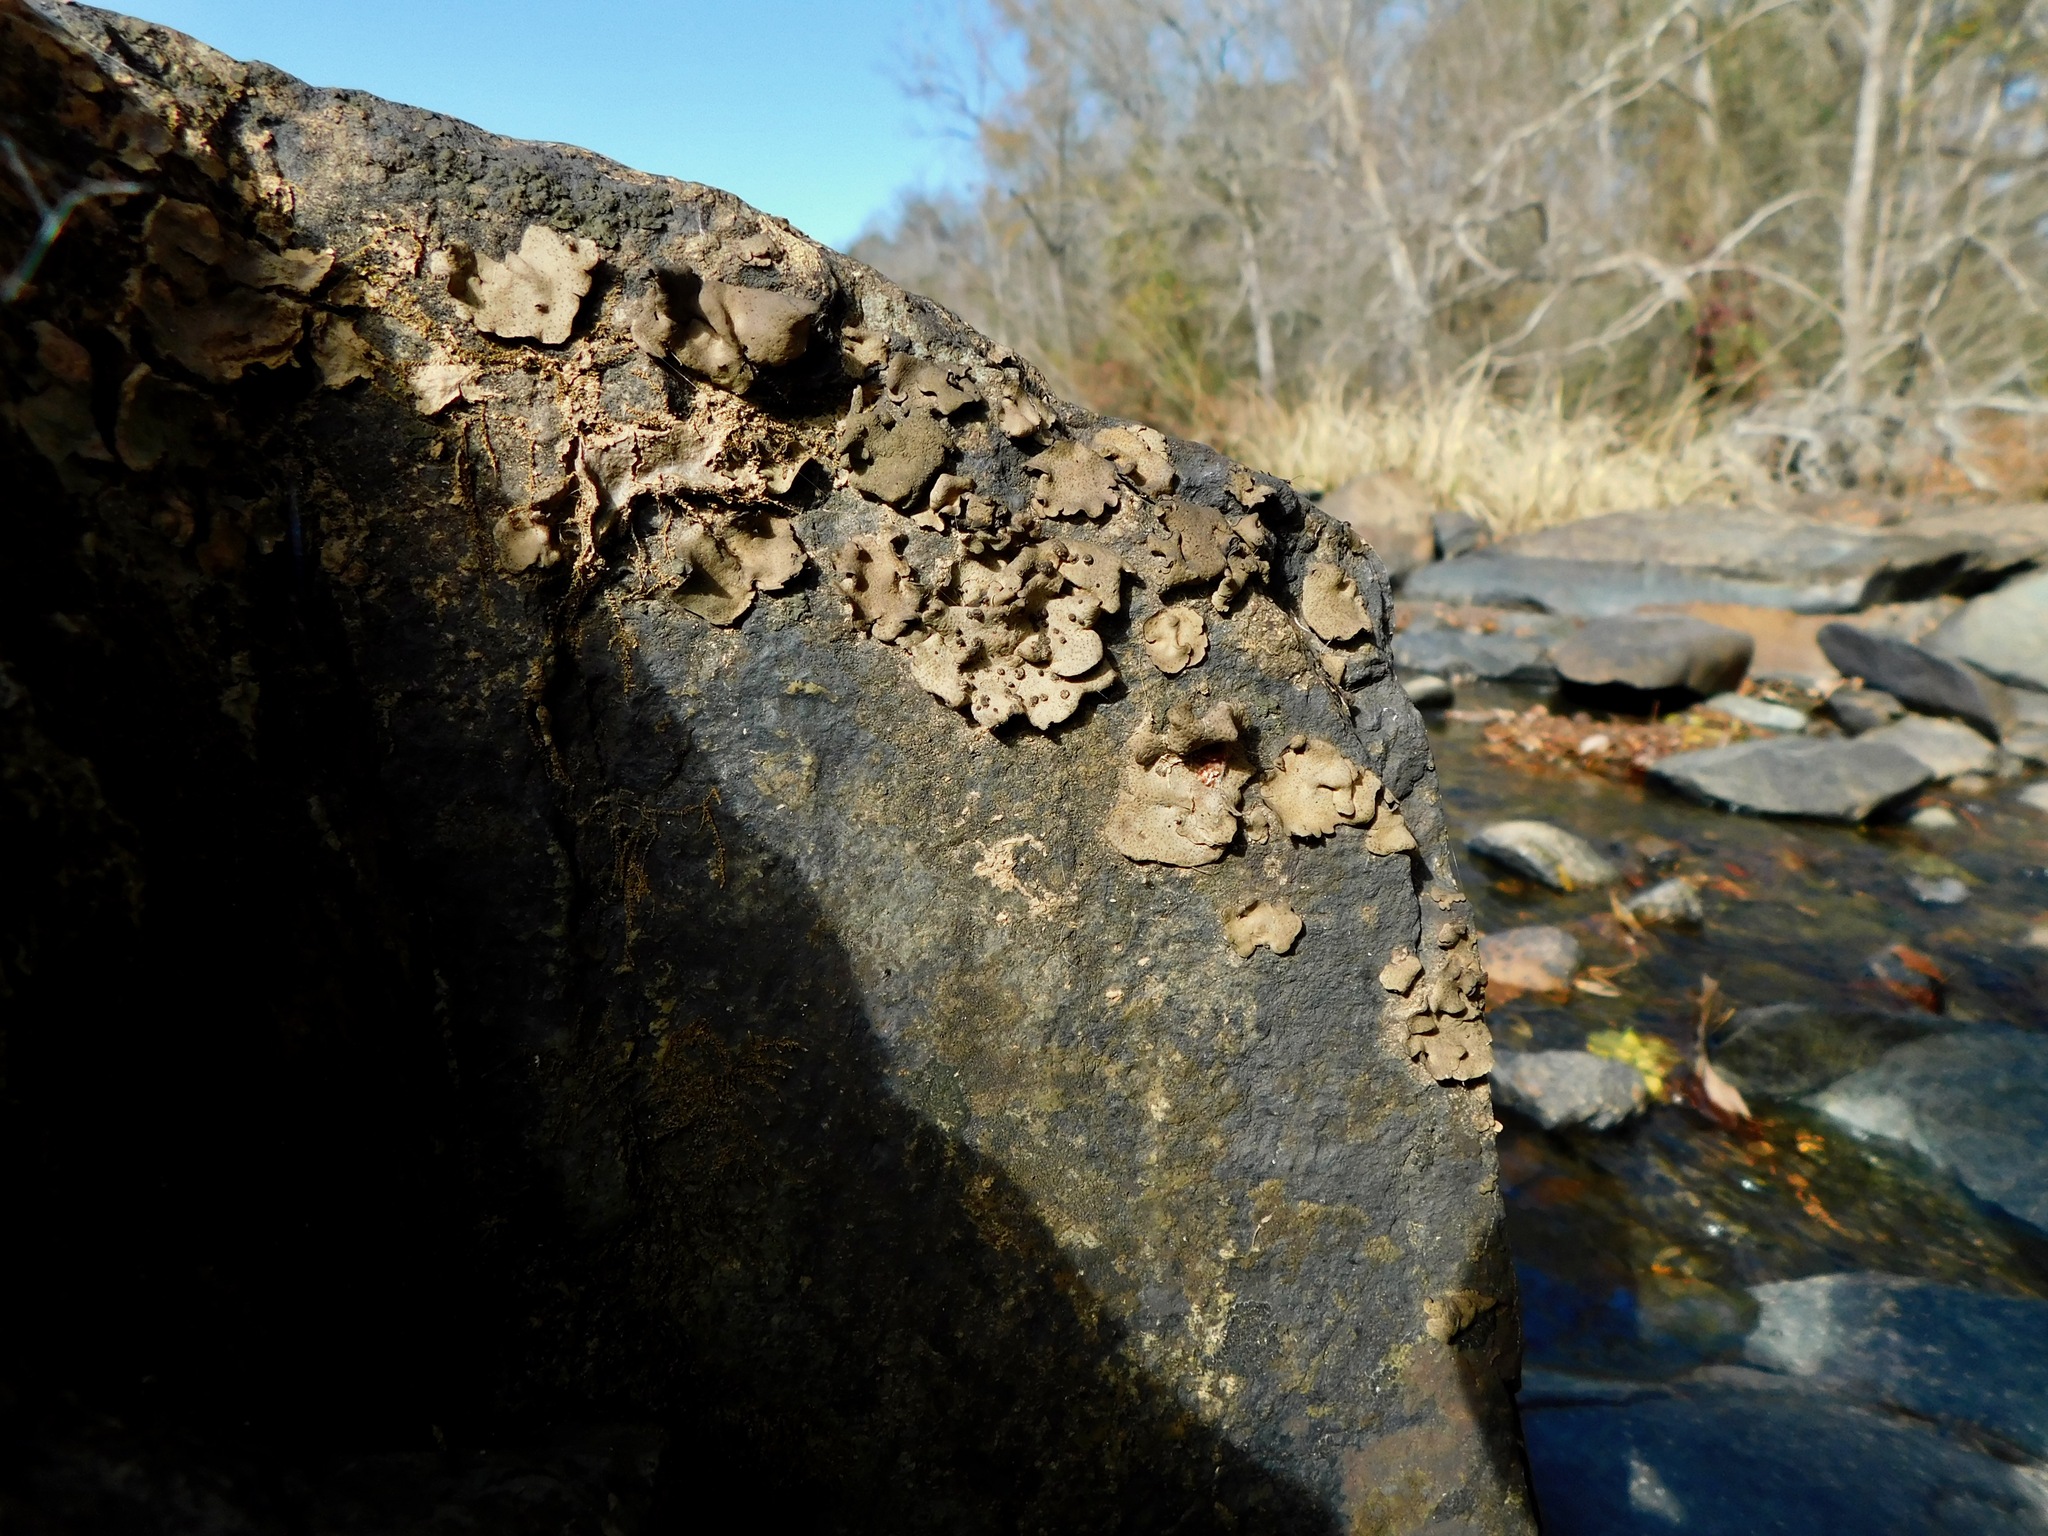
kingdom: Fungi
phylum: Ascomycota
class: Eurotiomycetes
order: Verrucariales
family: Verrucariaceae
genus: Dermatocarpon
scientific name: Dermatocarpon arenosaxi
